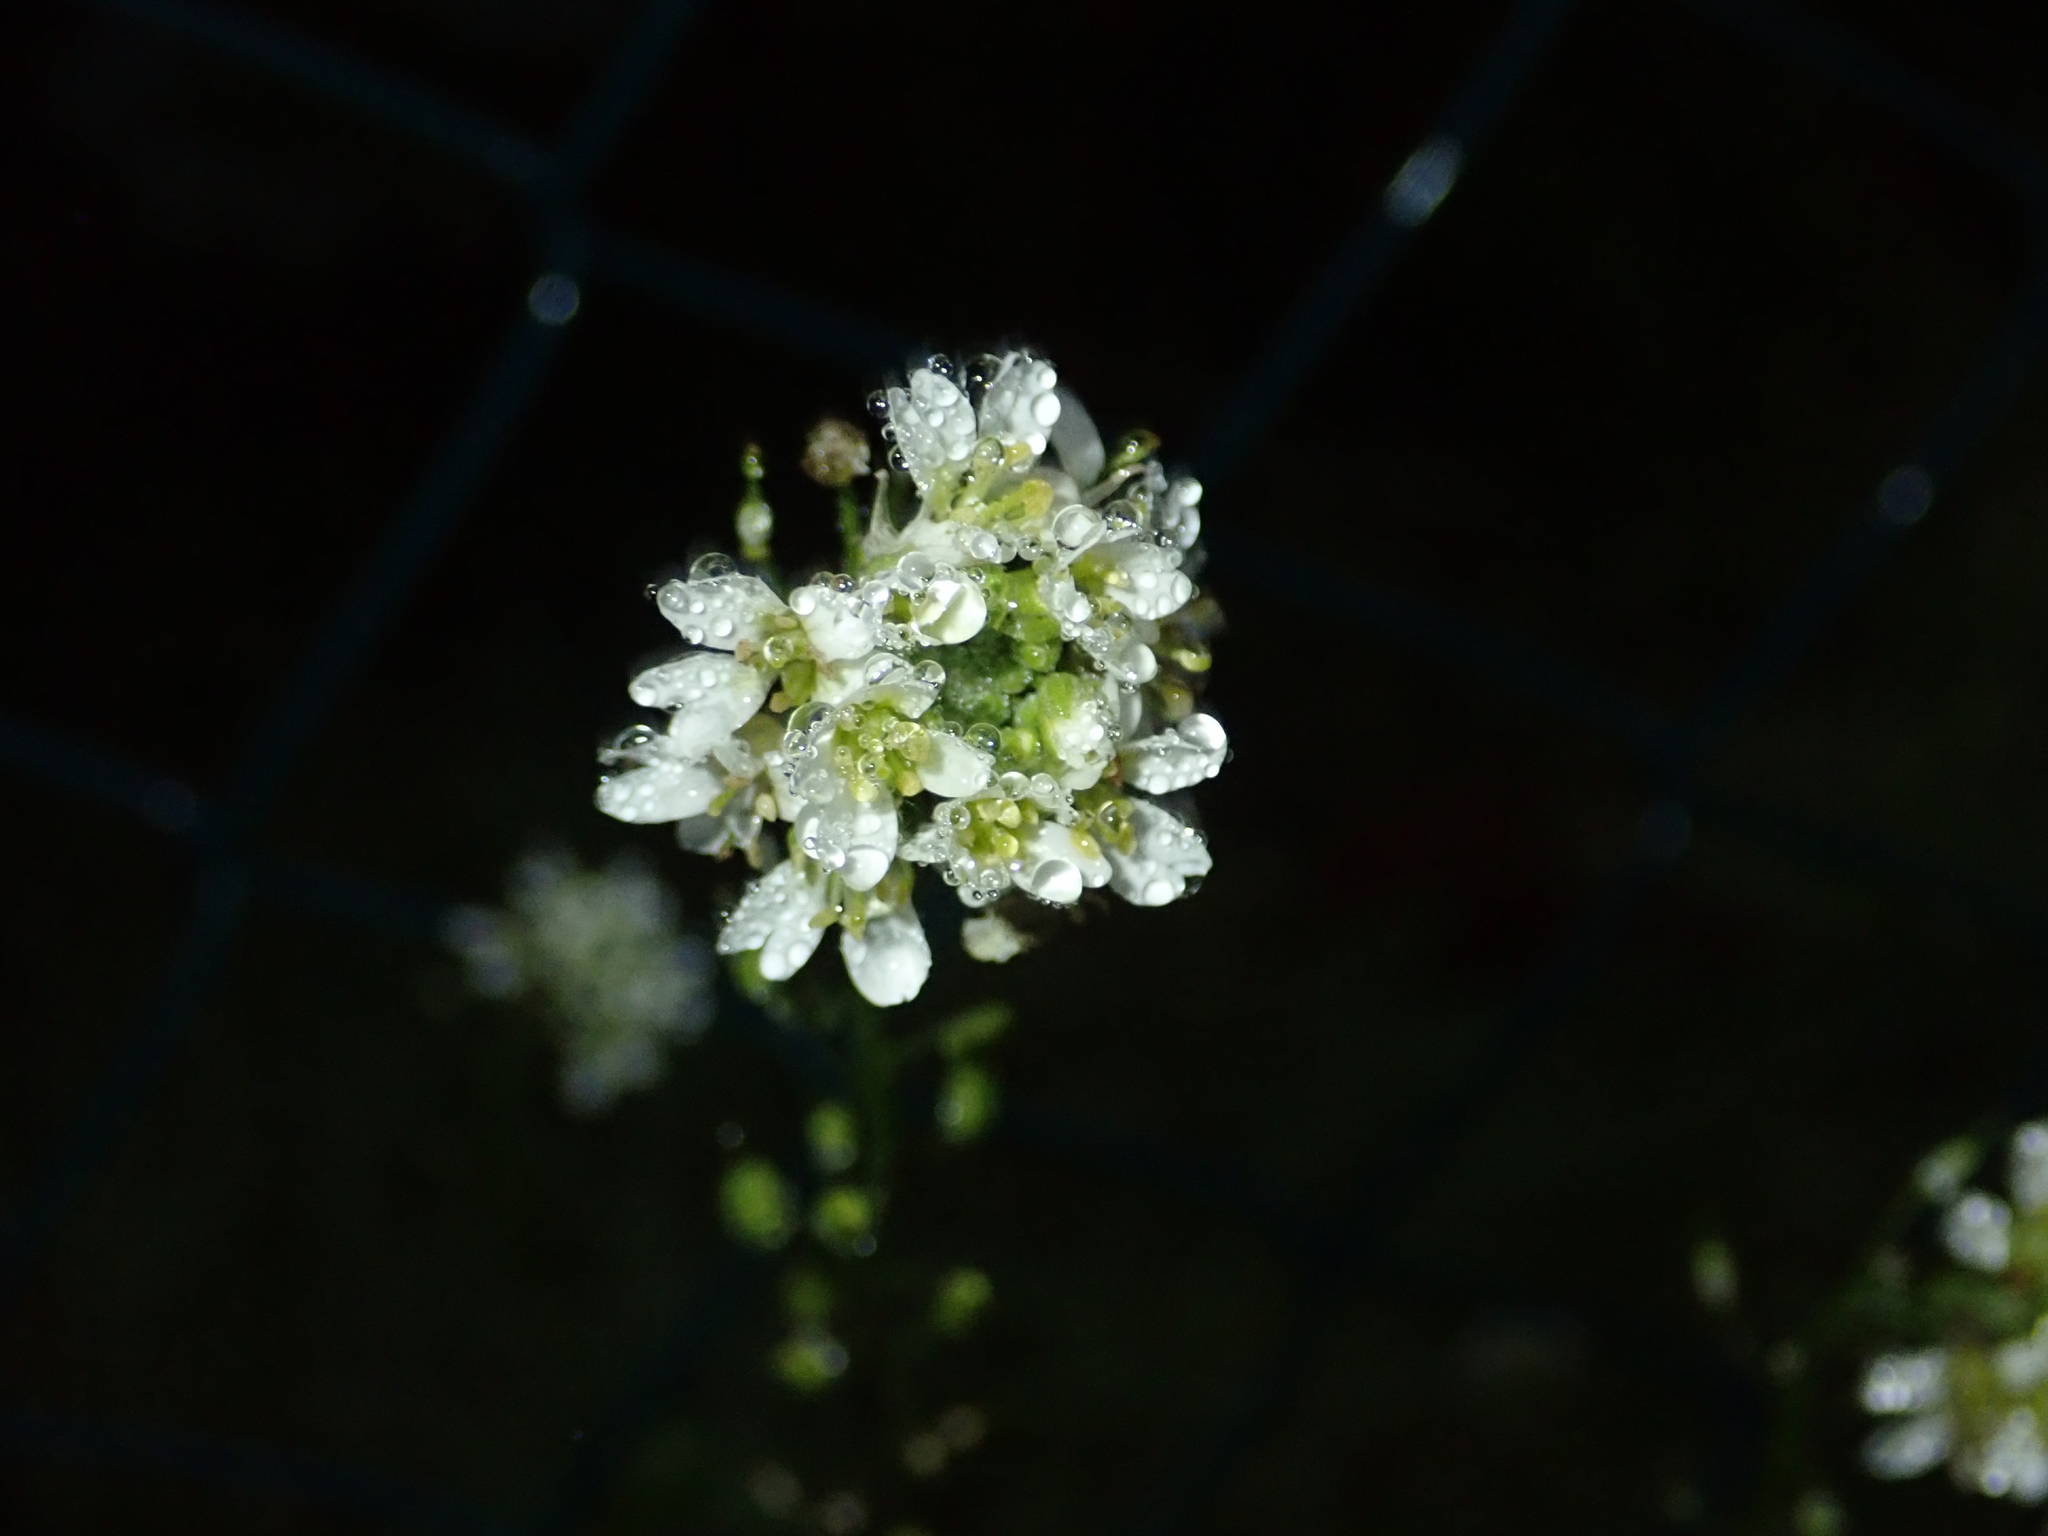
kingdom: Plantae
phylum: Tracheophyta
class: Magnoliopsida
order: Brassicales
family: Brassicaceae
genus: Berteroa
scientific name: Berteroa incana
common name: Hoary alison
